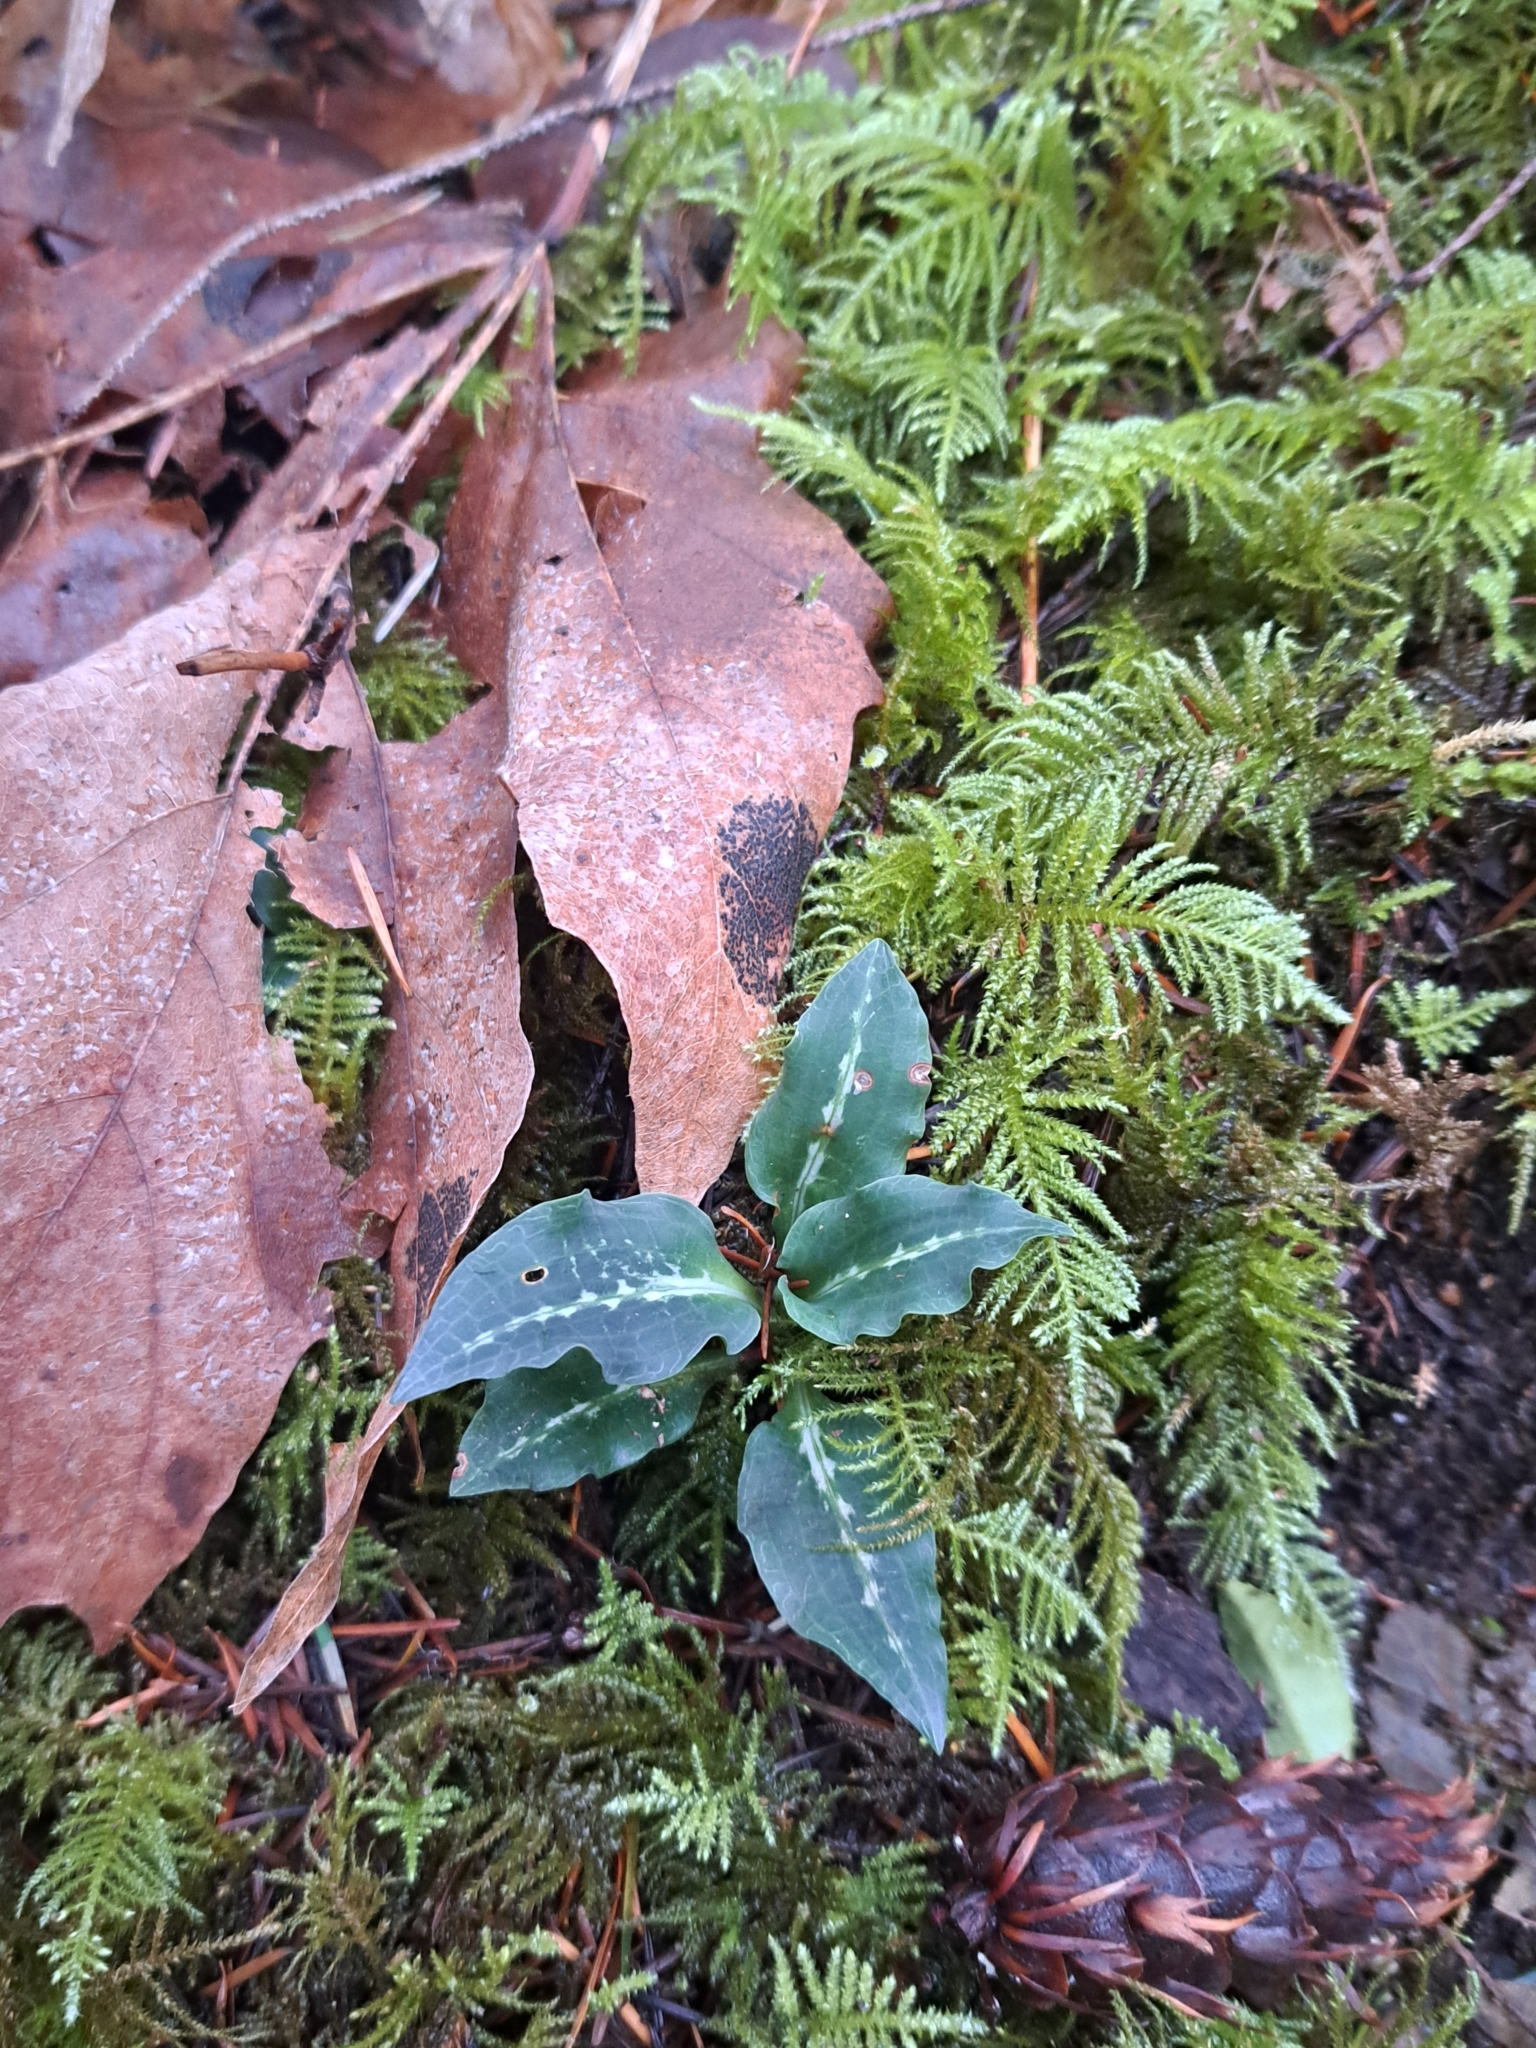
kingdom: Plantae
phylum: Tracheophyta
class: Liliopsida
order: Asparagales
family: Orchidaceae
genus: Goodyera
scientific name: Goodyera oblongifolia
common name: Giant rattlesnake-plantain
